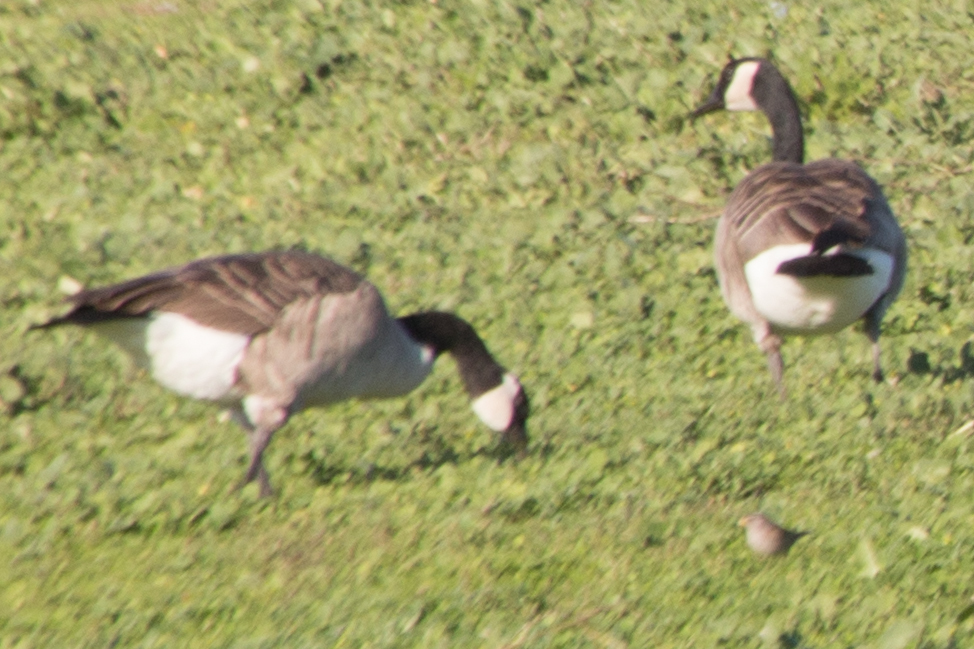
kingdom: Animalia
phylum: Chordata
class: Aves
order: Anseriformes
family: Anatidae
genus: Branta
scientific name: Branta canadensis
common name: Canada goose
